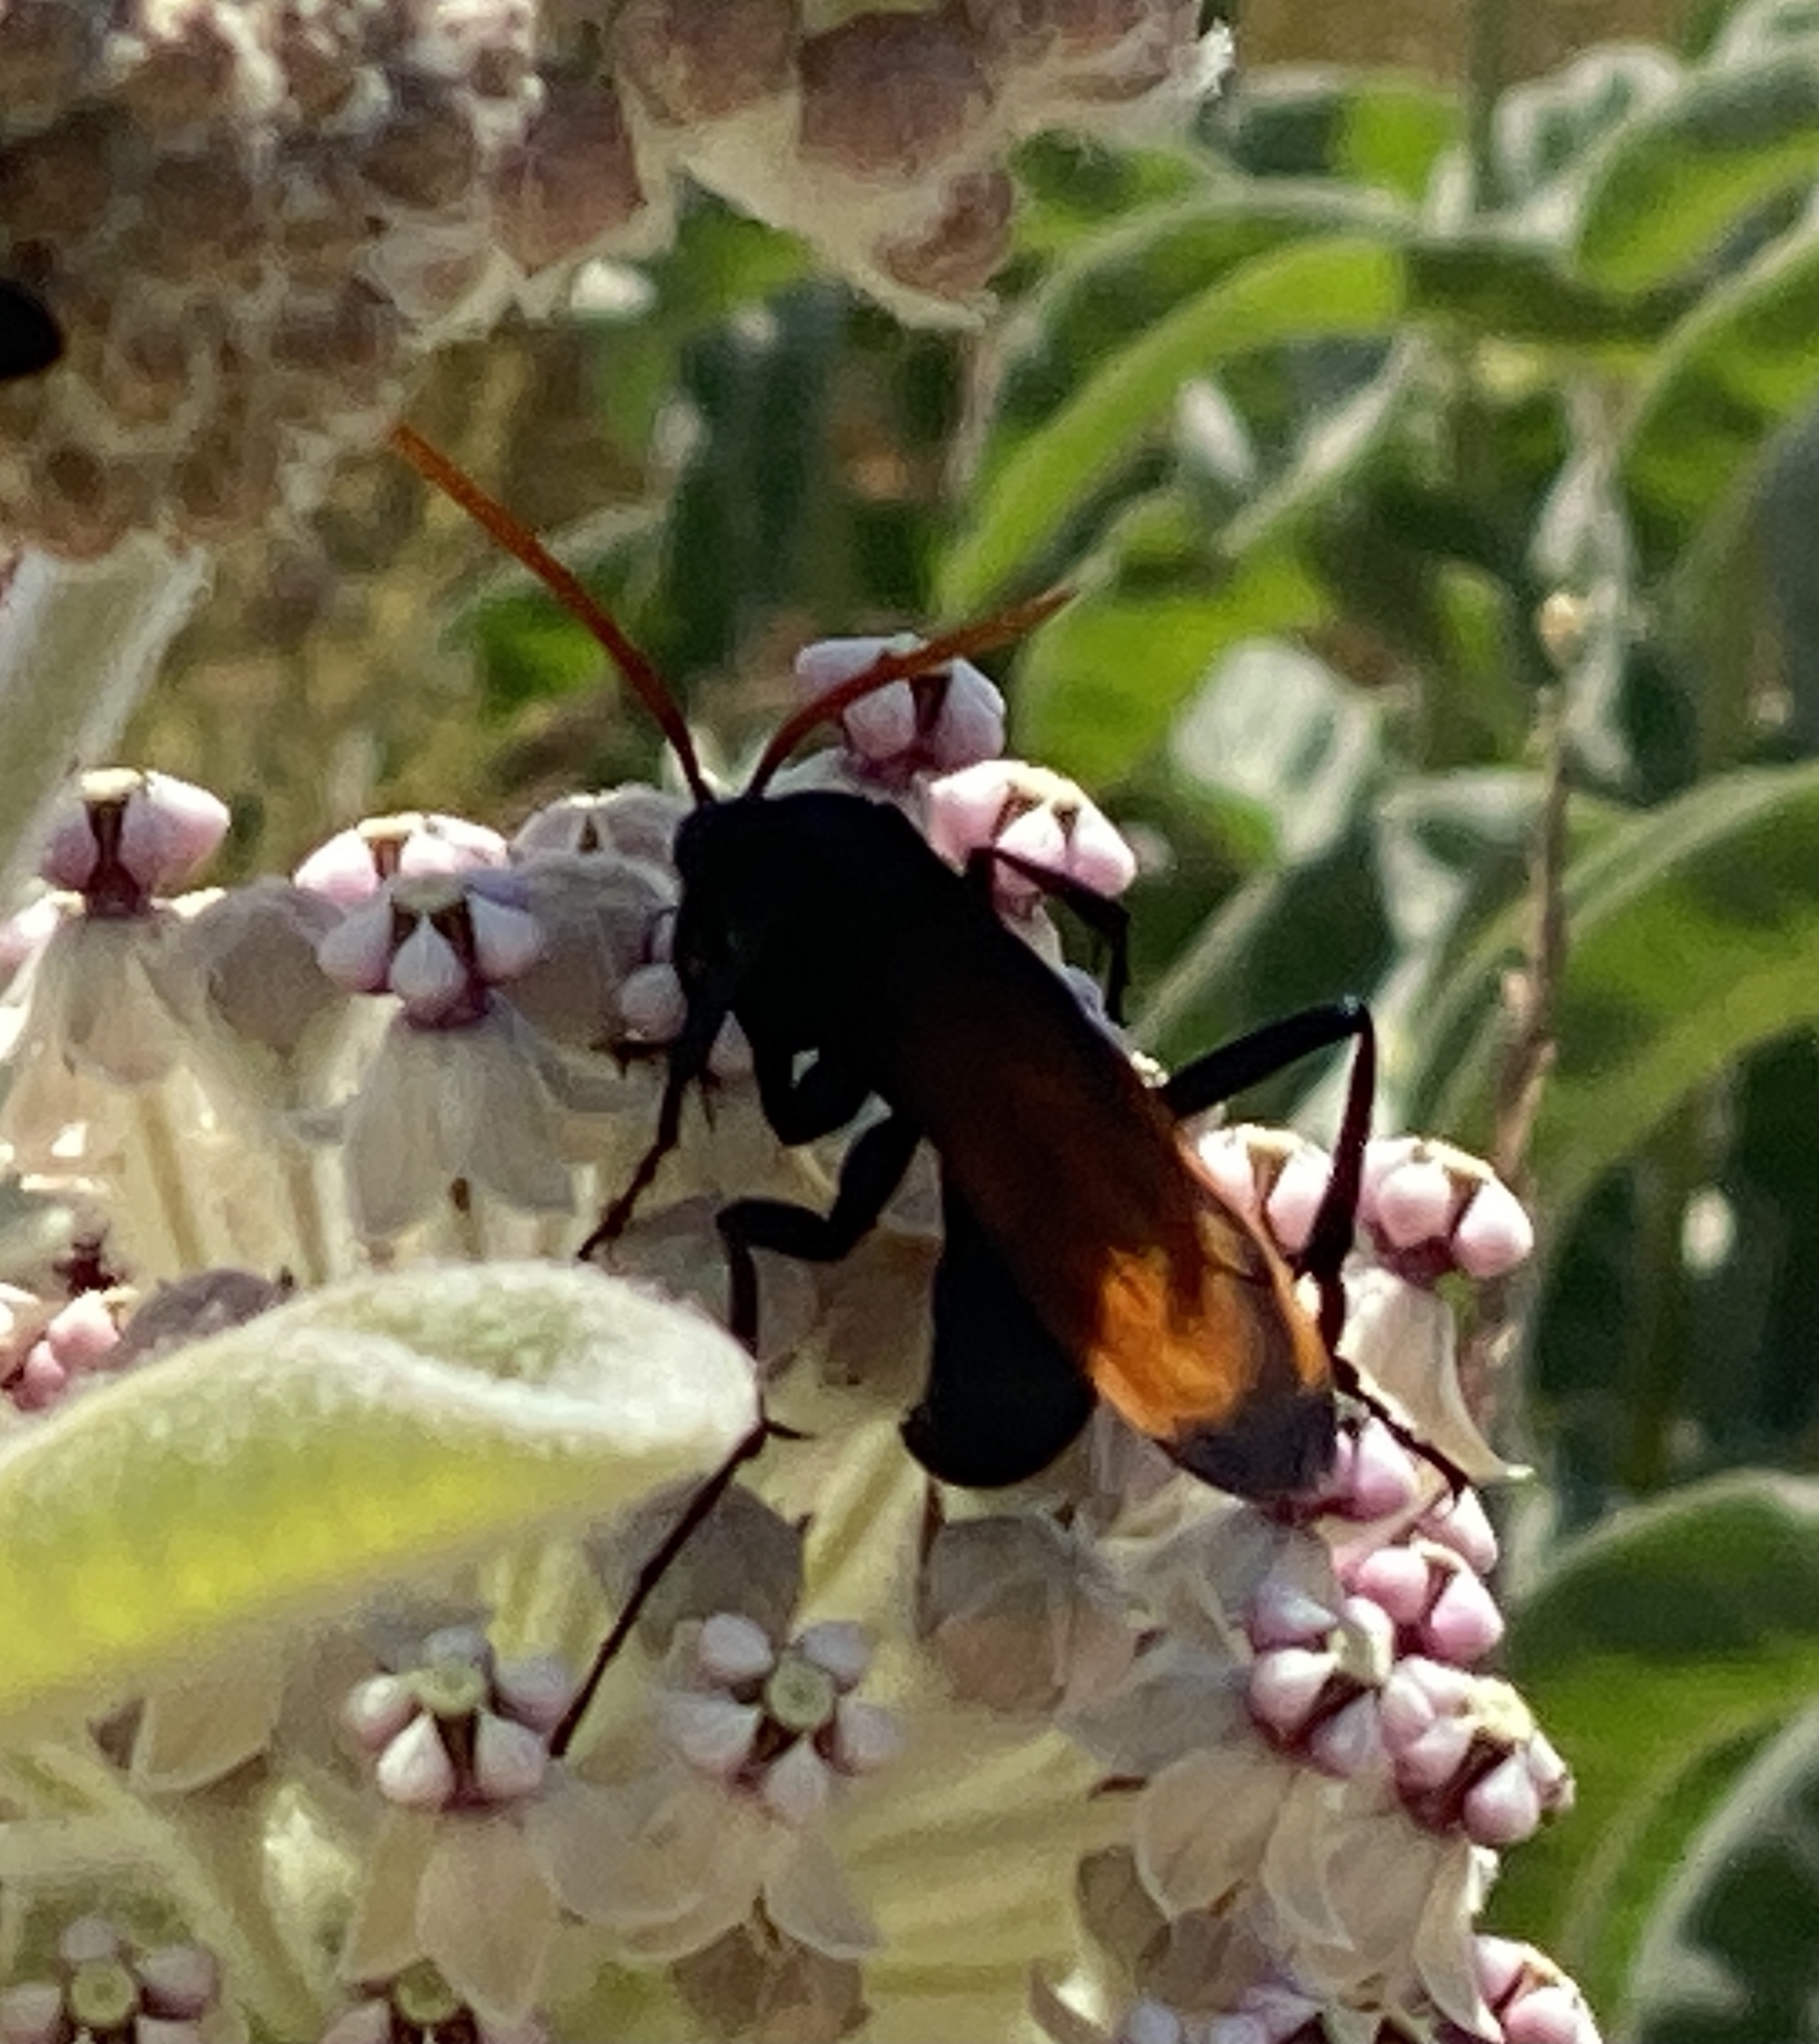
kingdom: Animalia
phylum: Arthropoda
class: Insecta
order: Hymenoptera
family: Pompilidae
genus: Pepsis
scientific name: Pepsis thisbe
